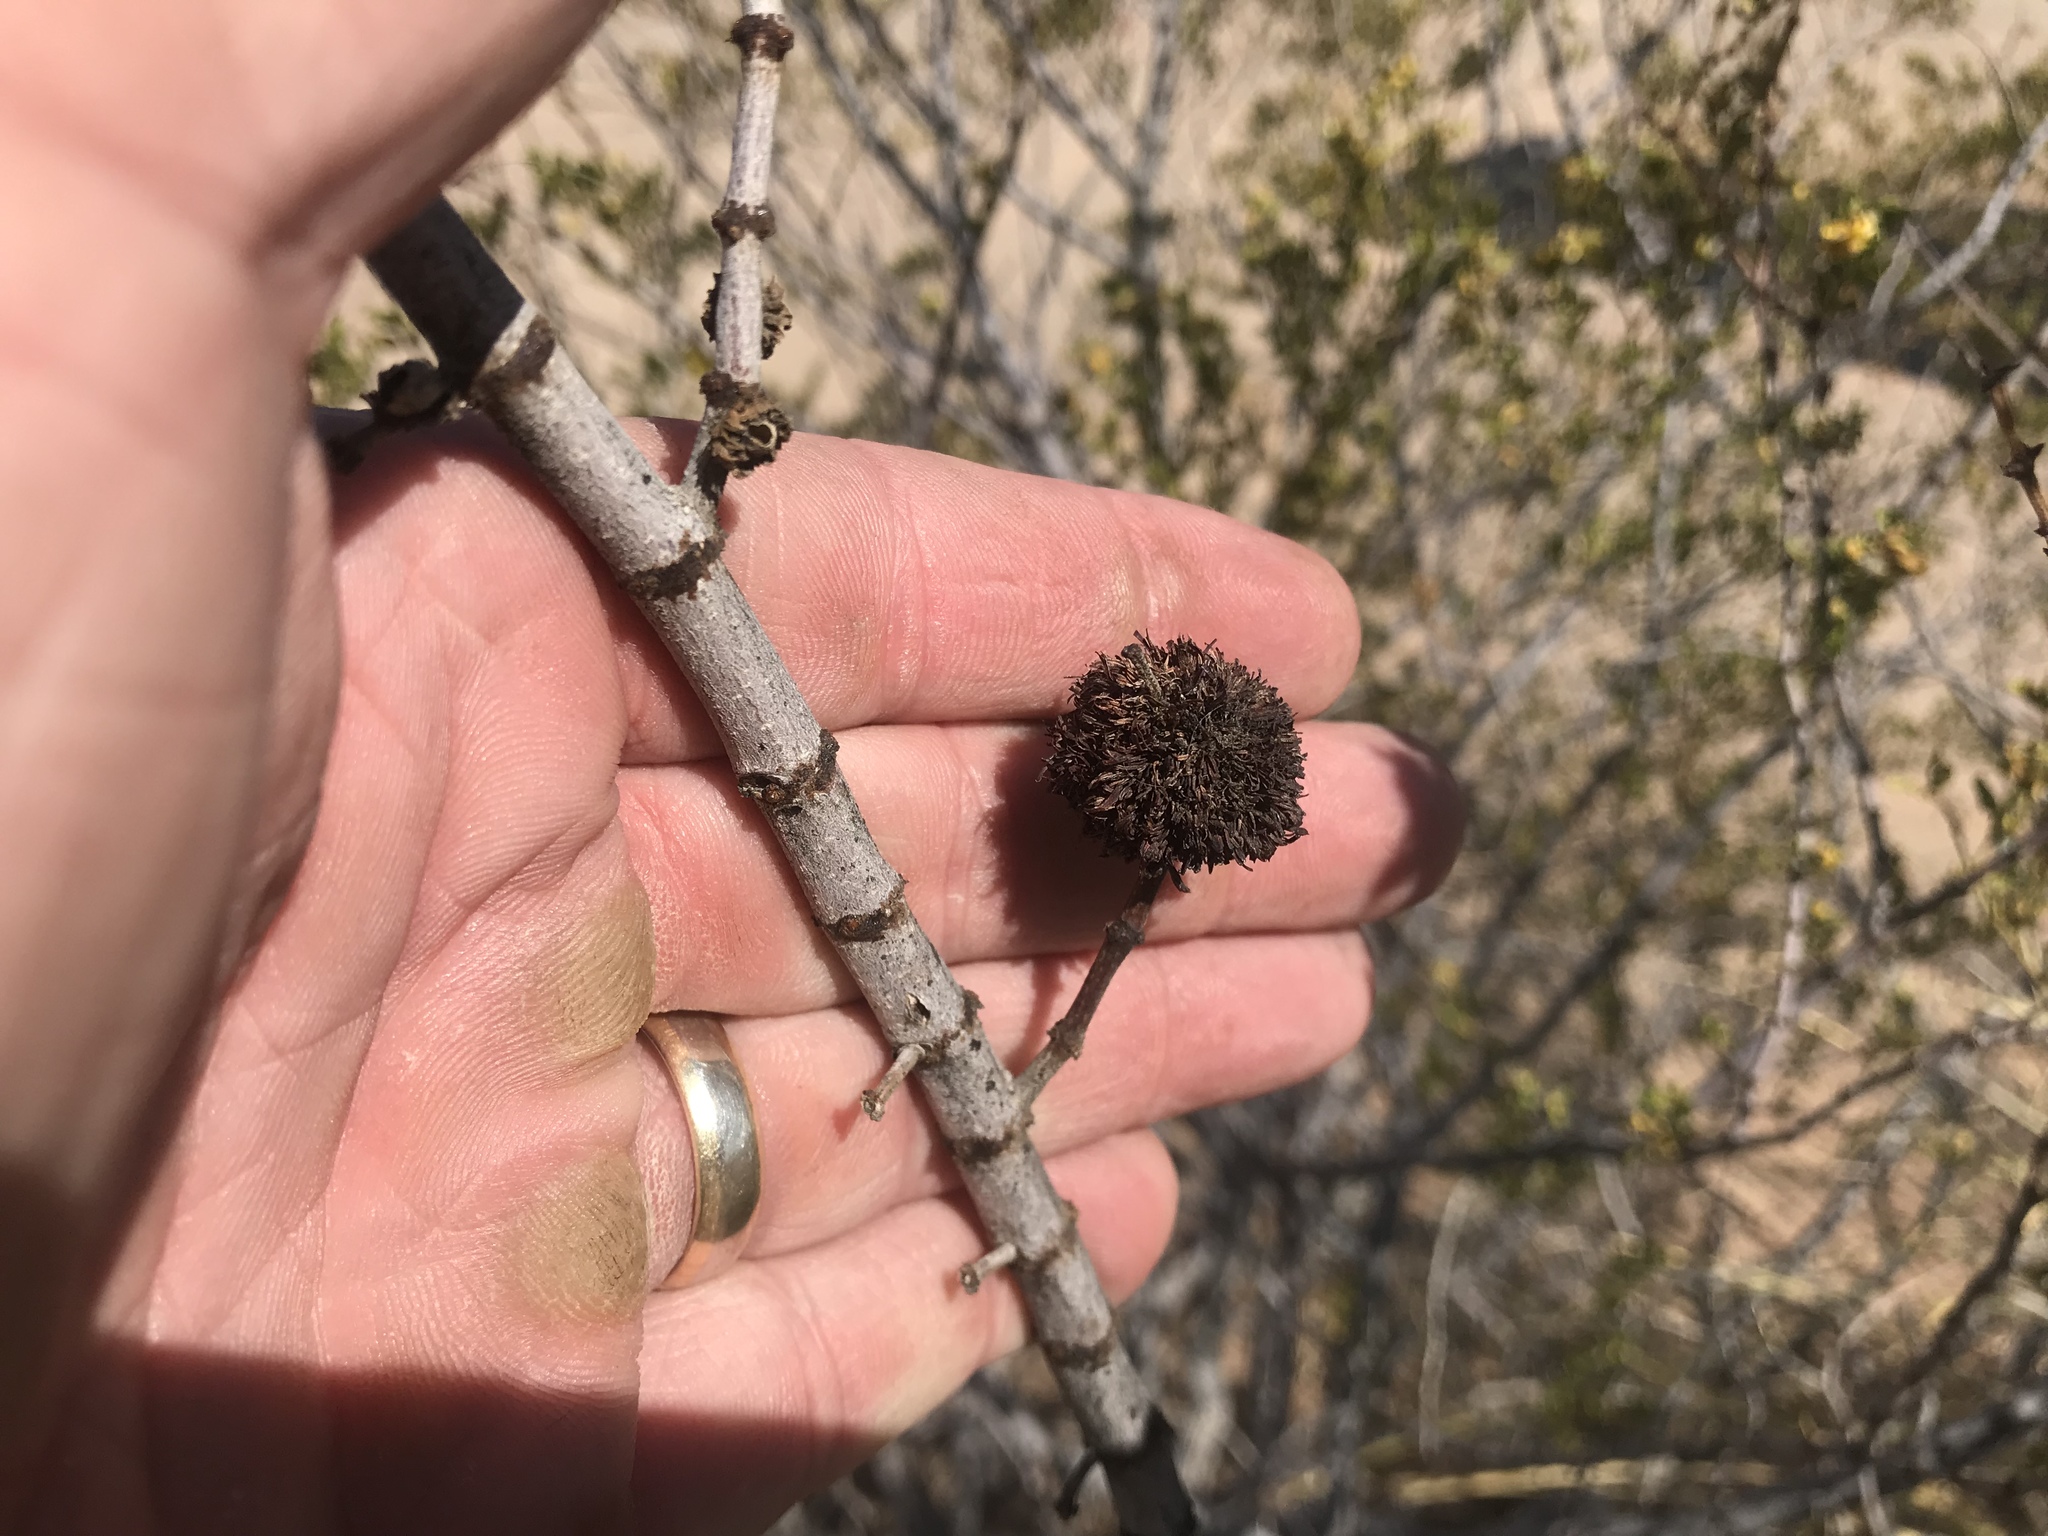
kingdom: Animalia
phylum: Arthropoda
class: Insecta
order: Diptera
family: Cecidomyiidae
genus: Asphondylia
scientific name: Asphondylia auripila
